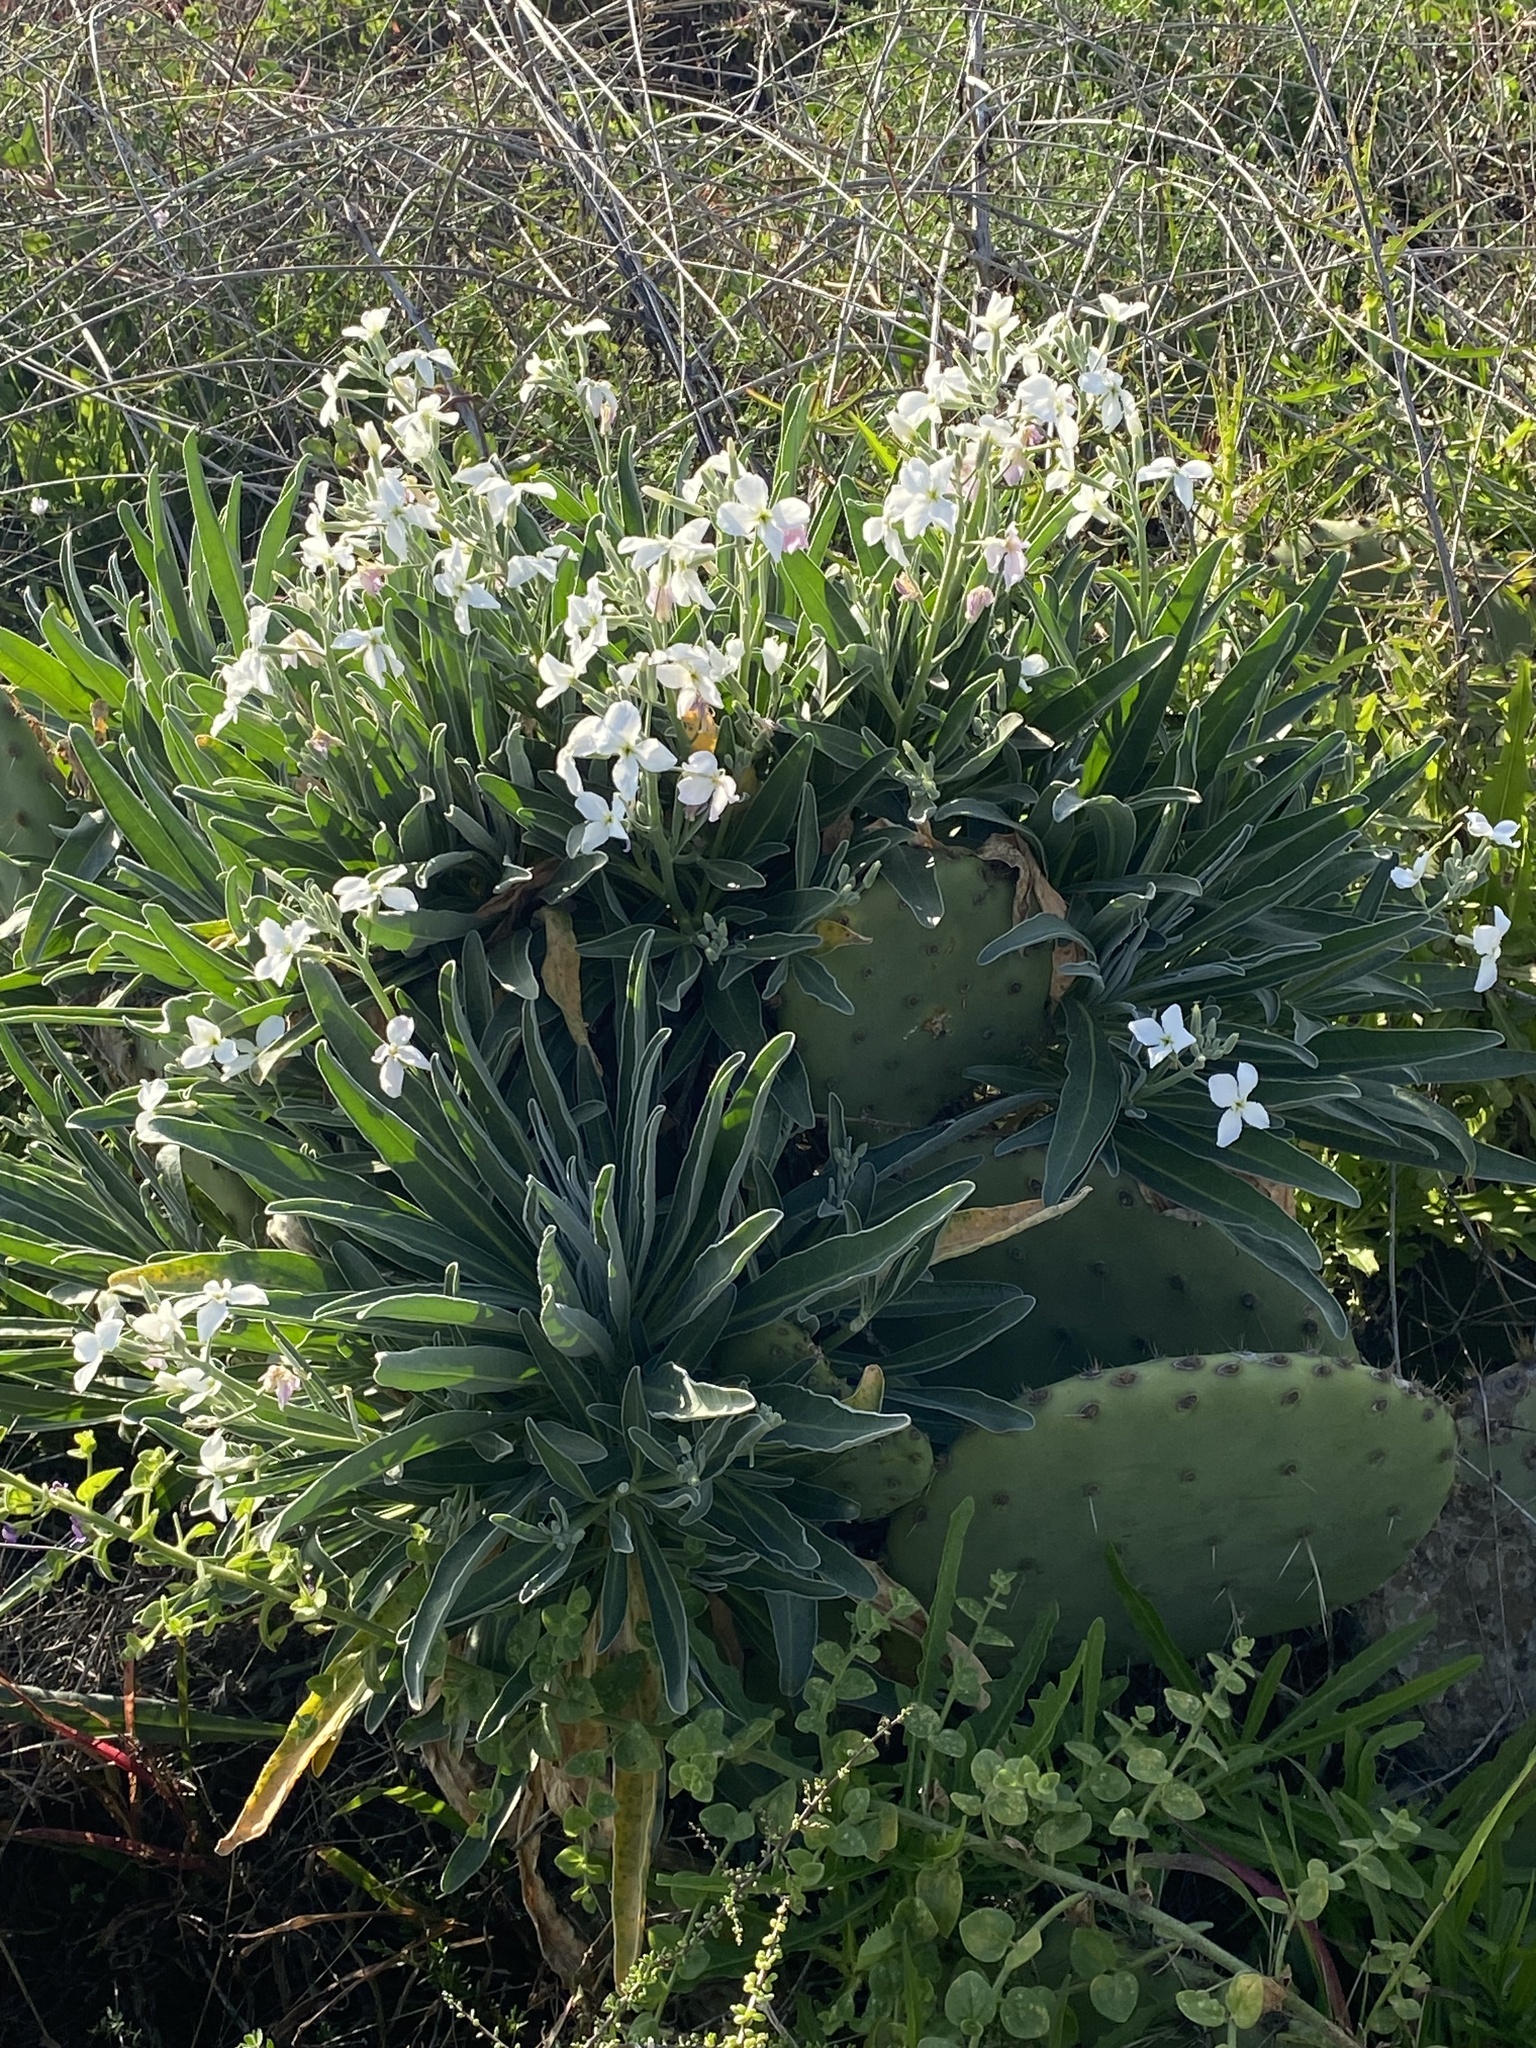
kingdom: Plantae
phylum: Tracheophyta
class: Magnoliopsida
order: Brassicales
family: Brassicaceae
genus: Matthiola
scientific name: Matthiola incana
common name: Hoary stock
